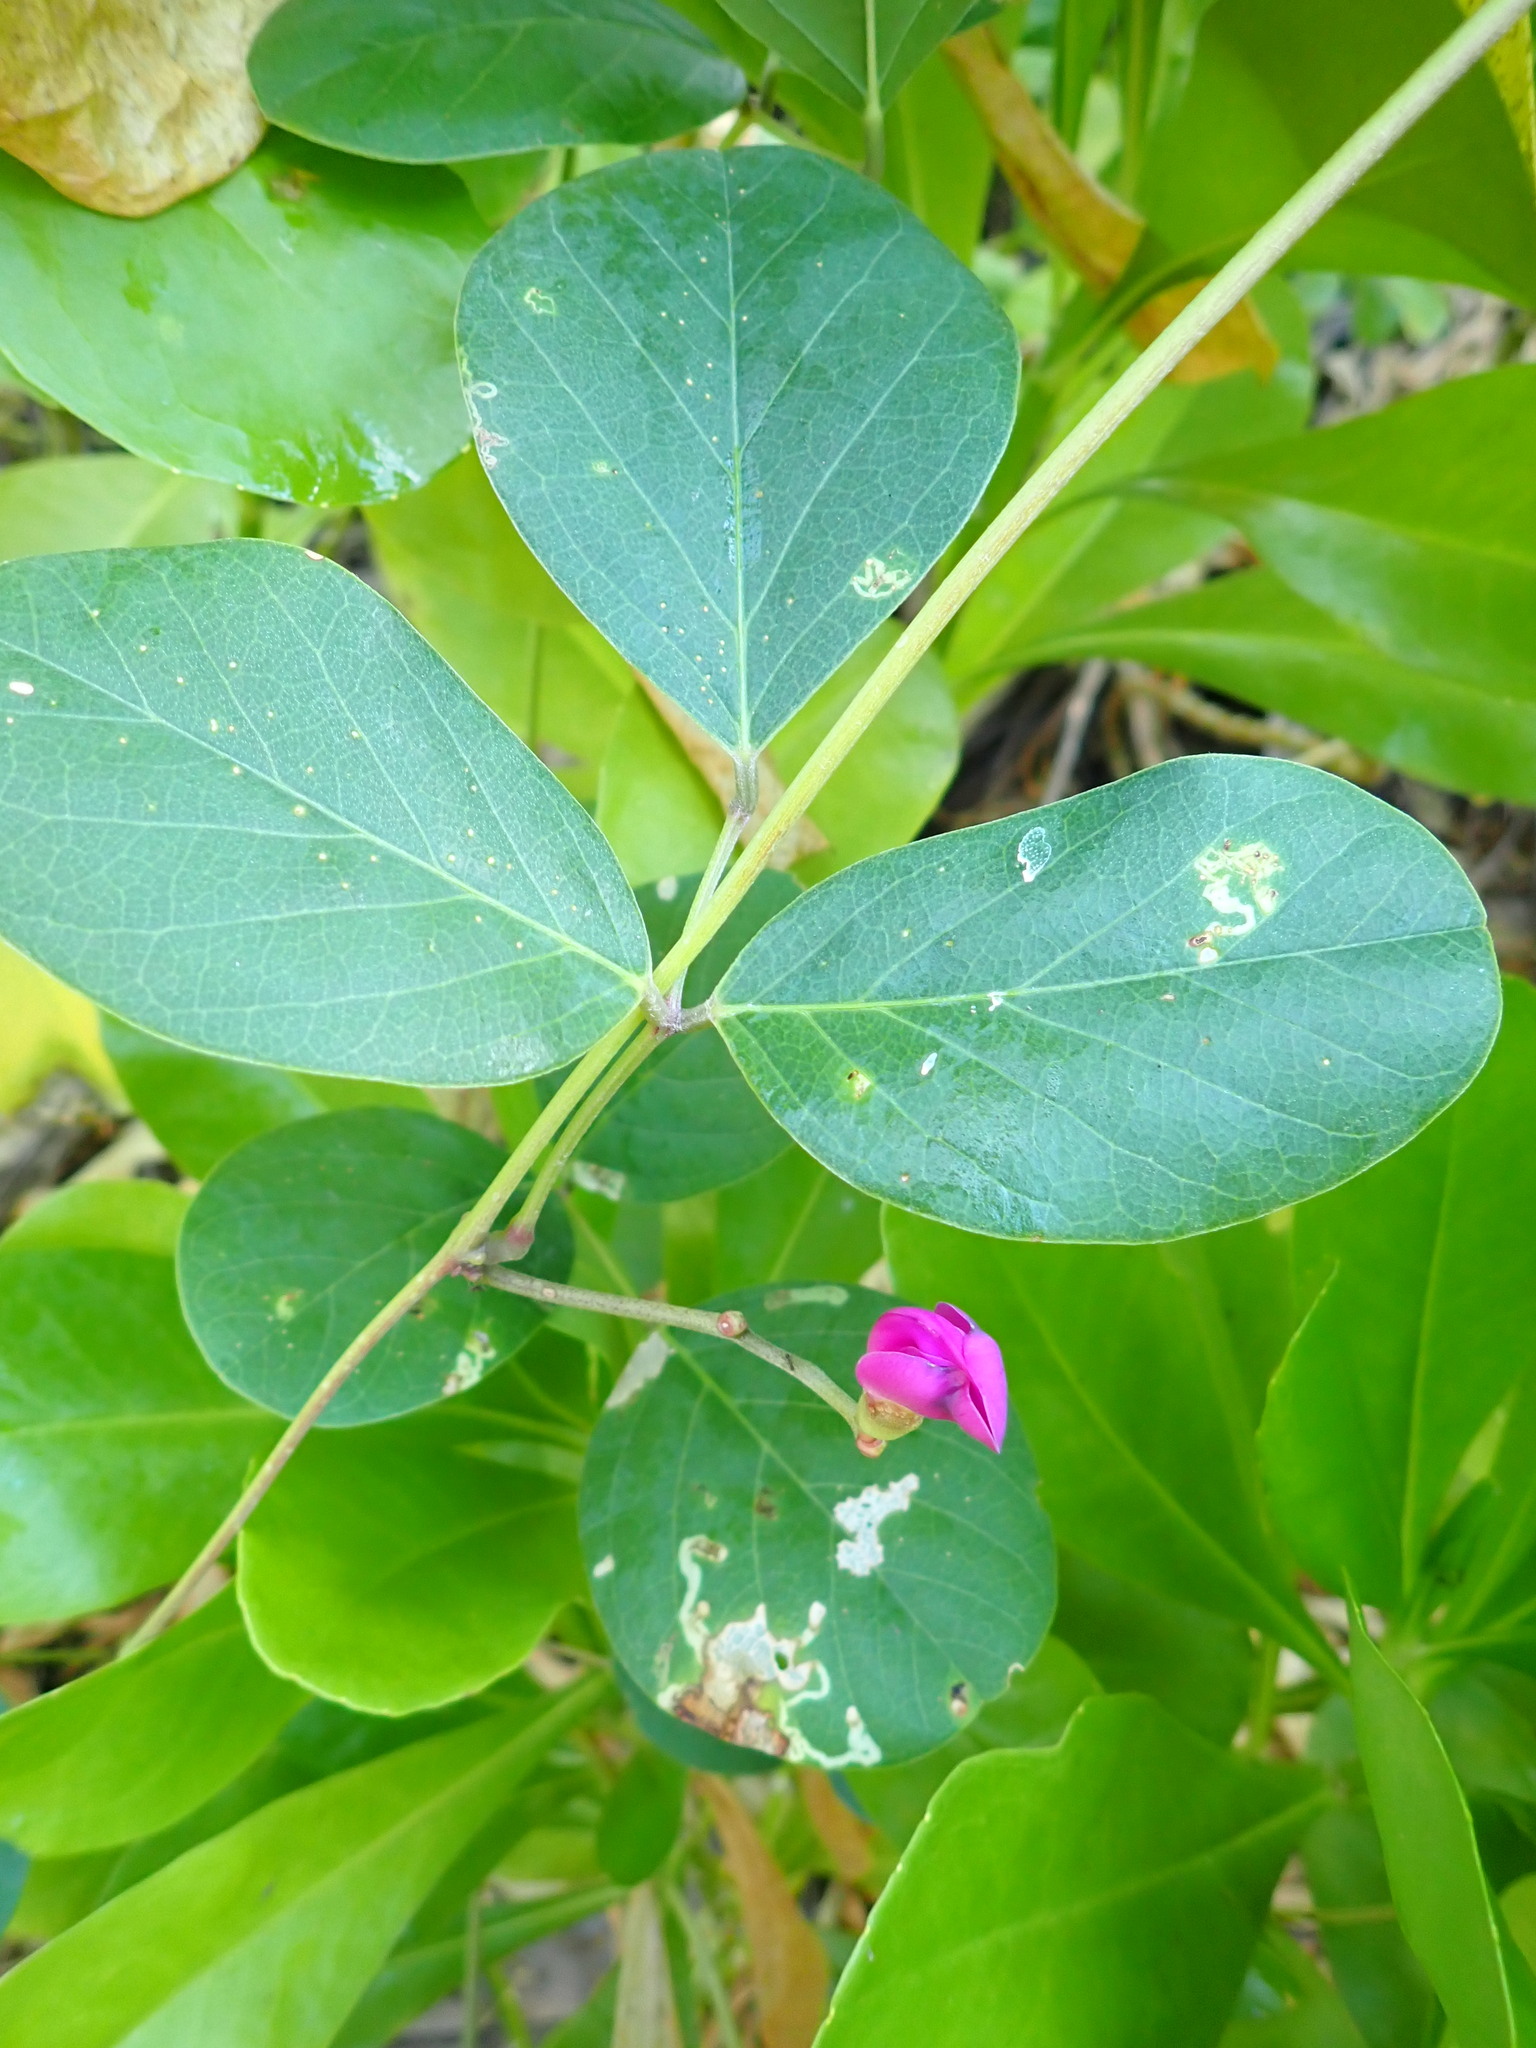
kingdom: Plantae
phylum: Tracheophyta
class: Magnoliopsida
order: Fabales
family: Fabaceae
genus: Canavalia
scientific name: Canavalia rosea
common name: Beach-bean
